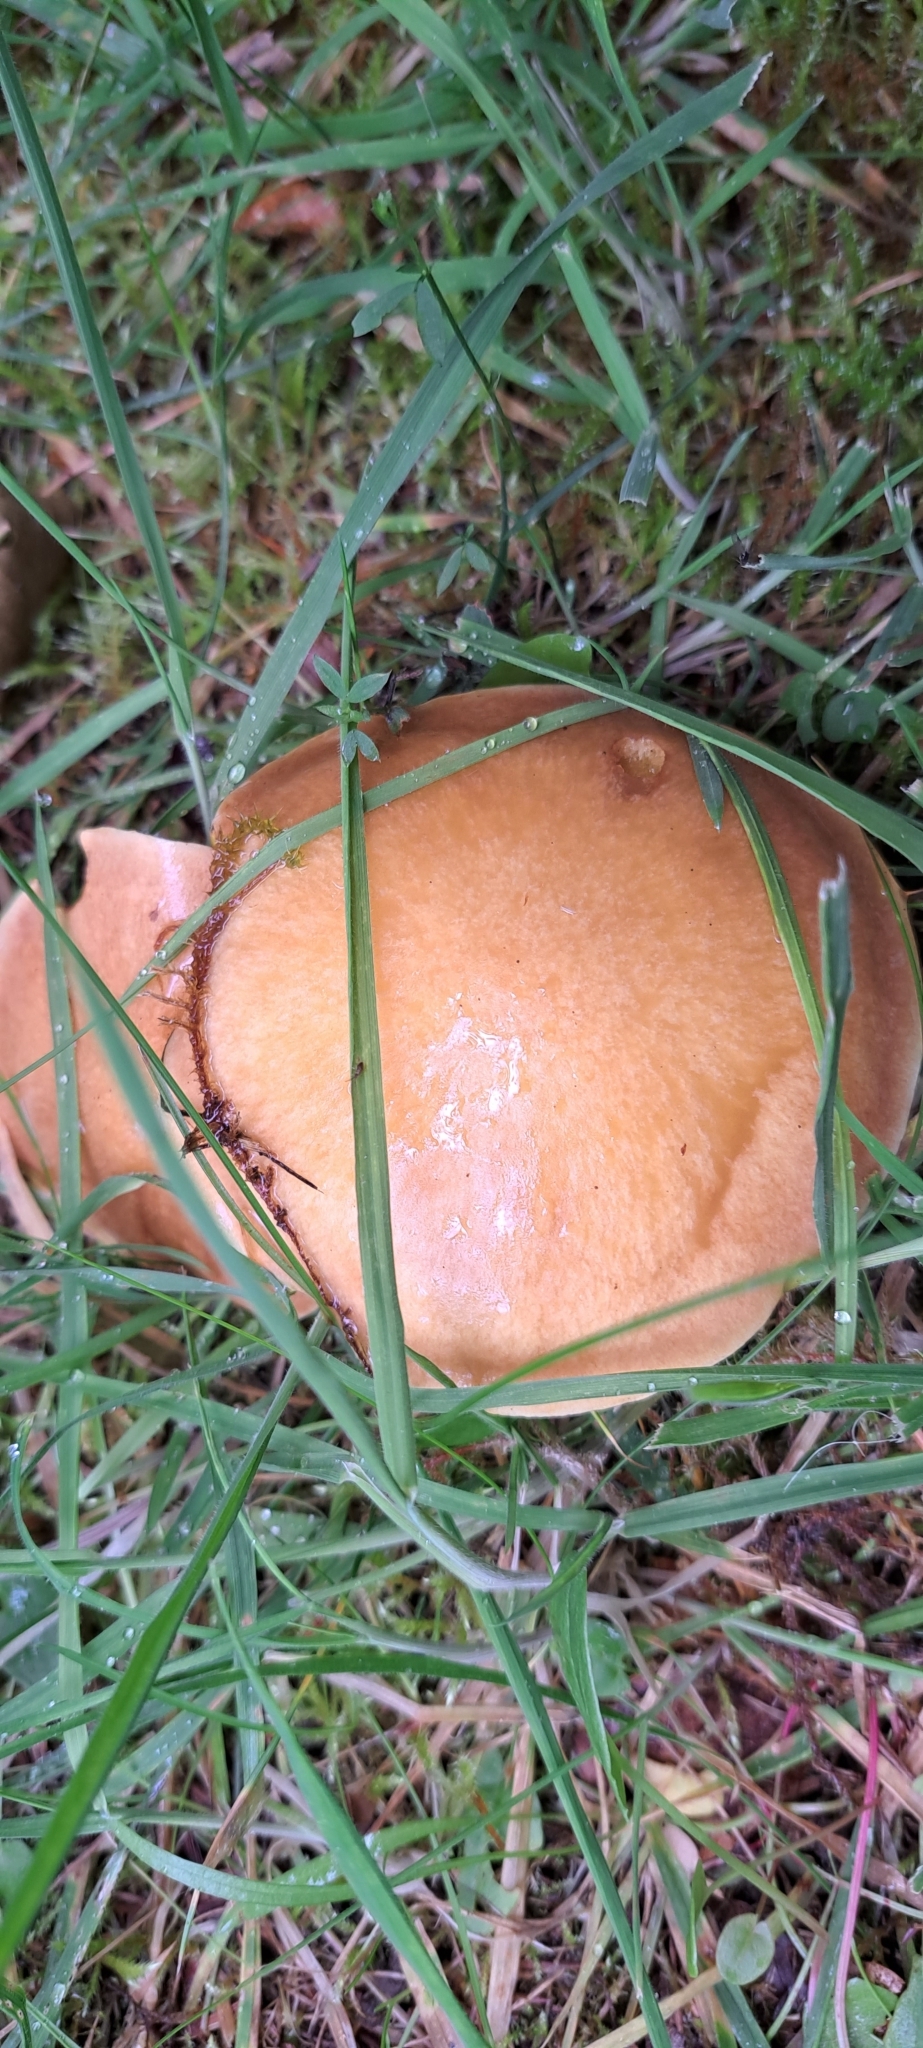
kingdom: Fungi
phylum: Basidiomycota
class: Agaricomycetes
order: Boletales
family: Suillaceae
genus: Suillus
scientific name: Suillus grevillei
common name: Larch bolete
